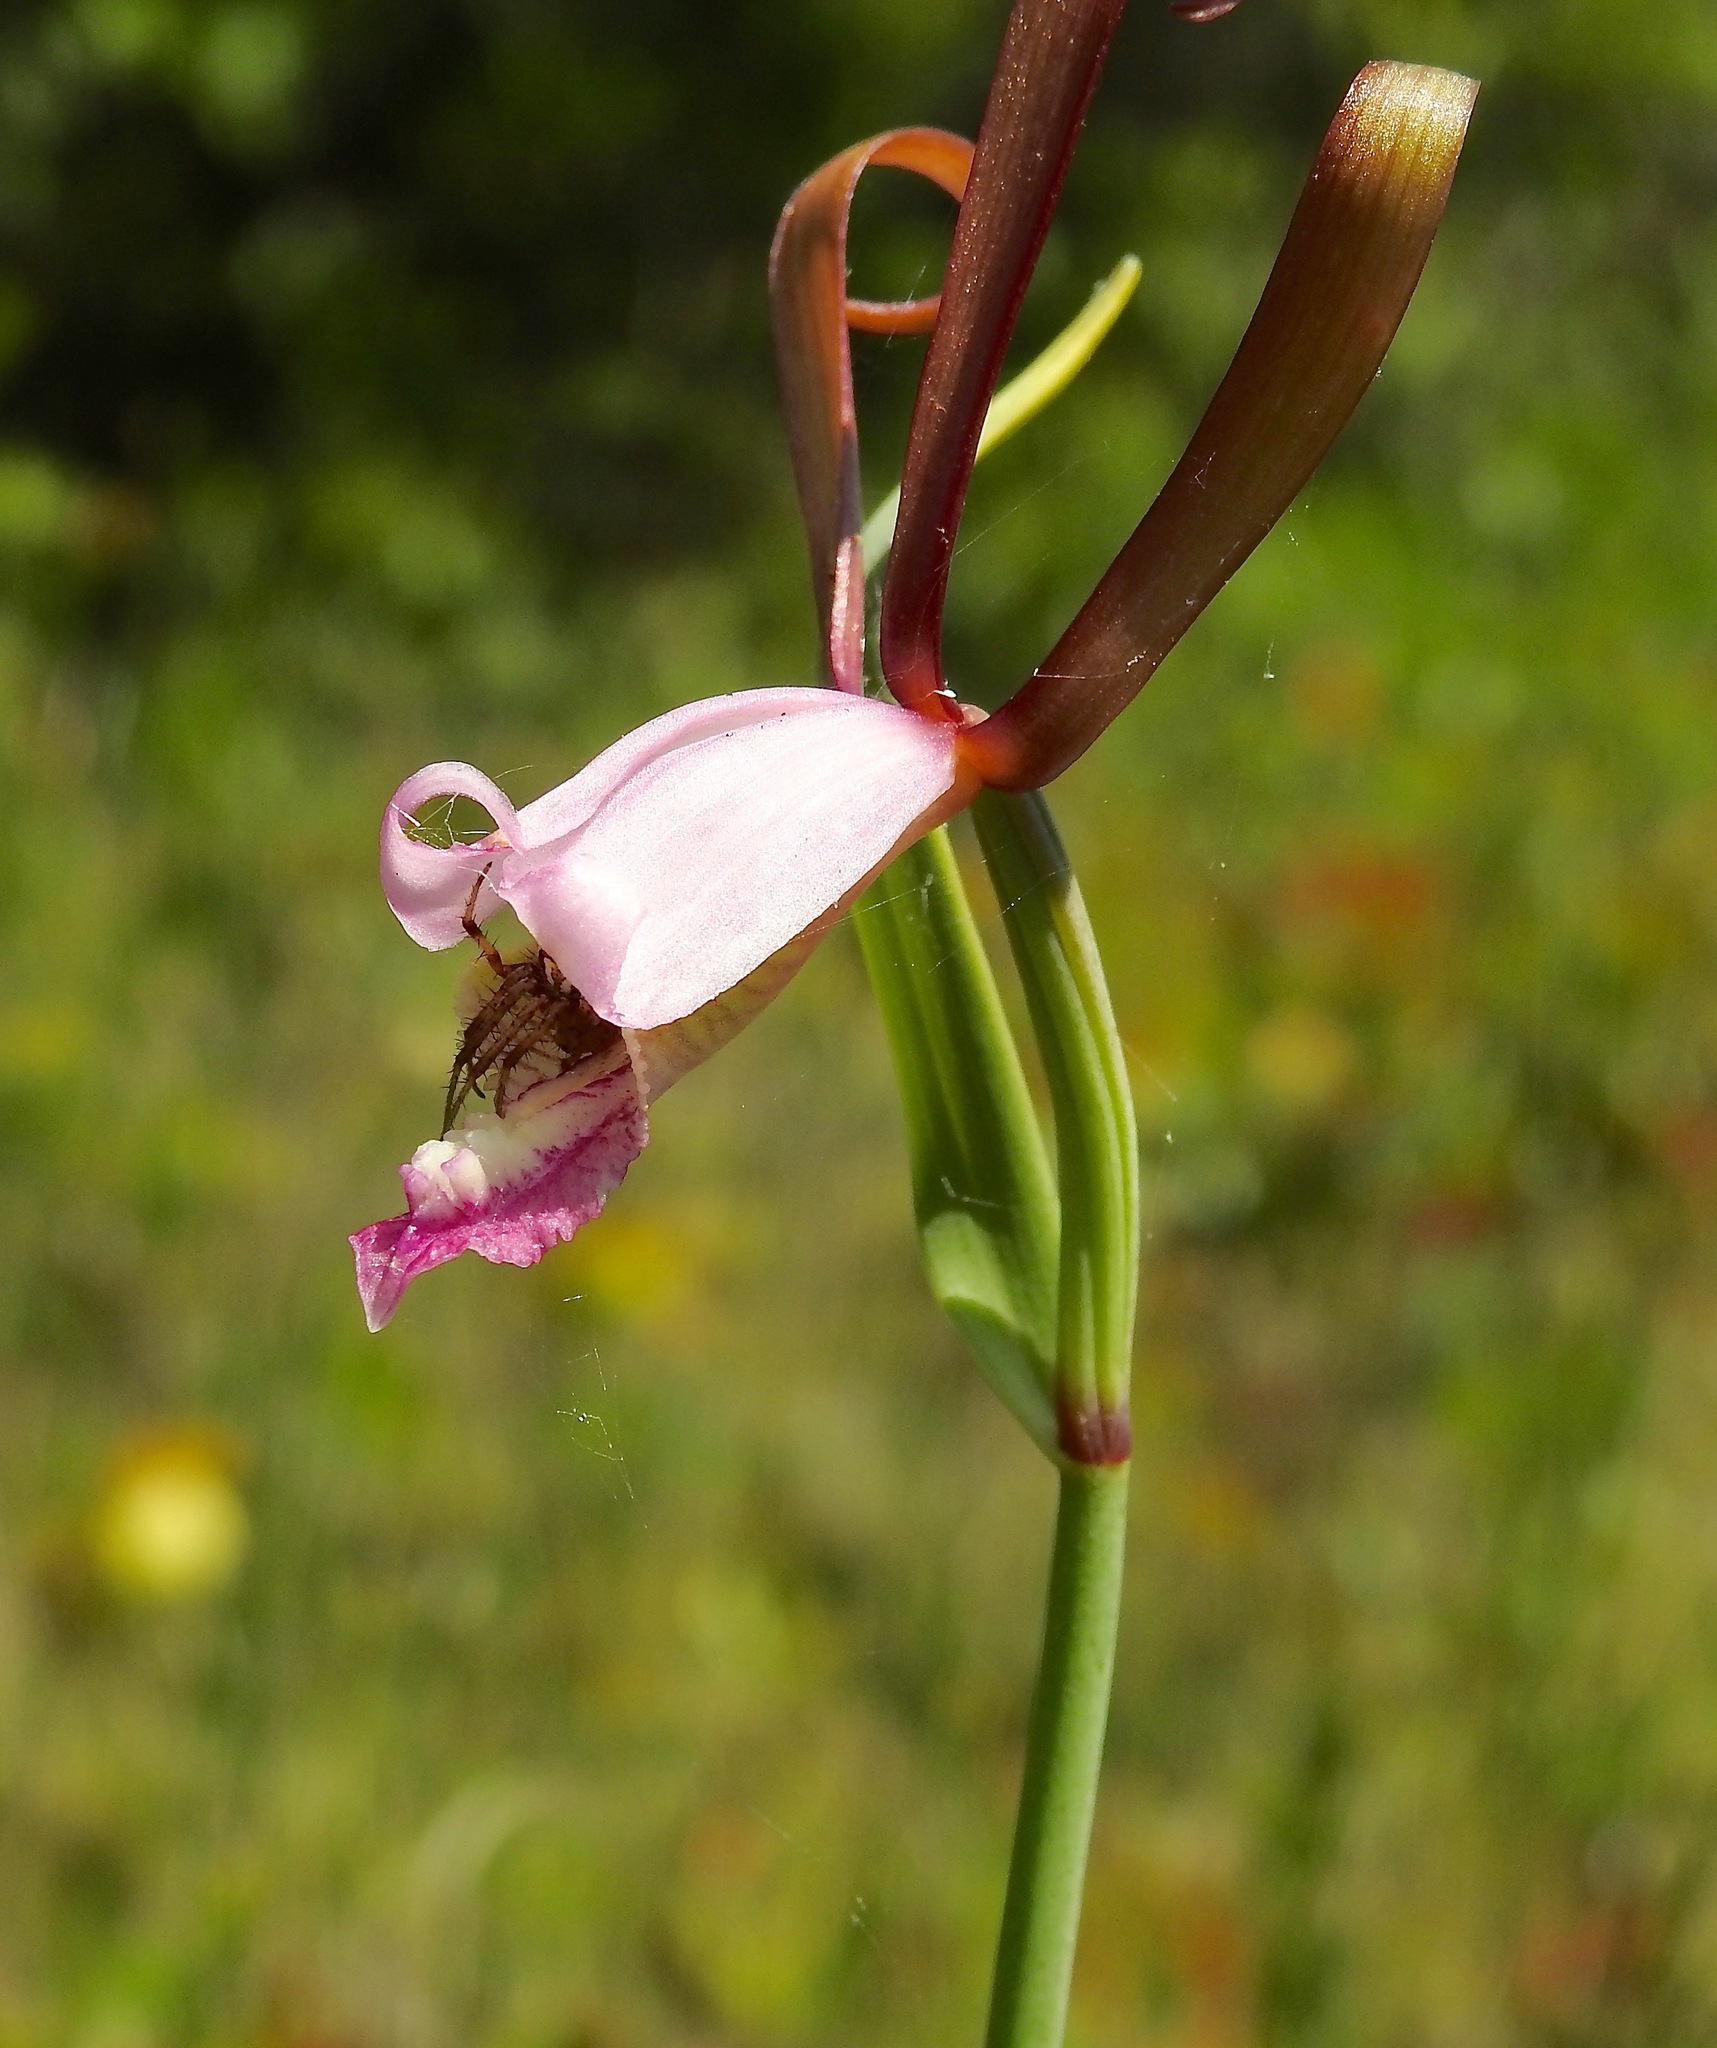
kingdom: Plantae
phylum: Tracheophyta
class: Liliopsida
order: Asparagales
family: Orchidaceae
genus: Cleistesiopsis
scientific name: Cleistesiopsis oricamporum
